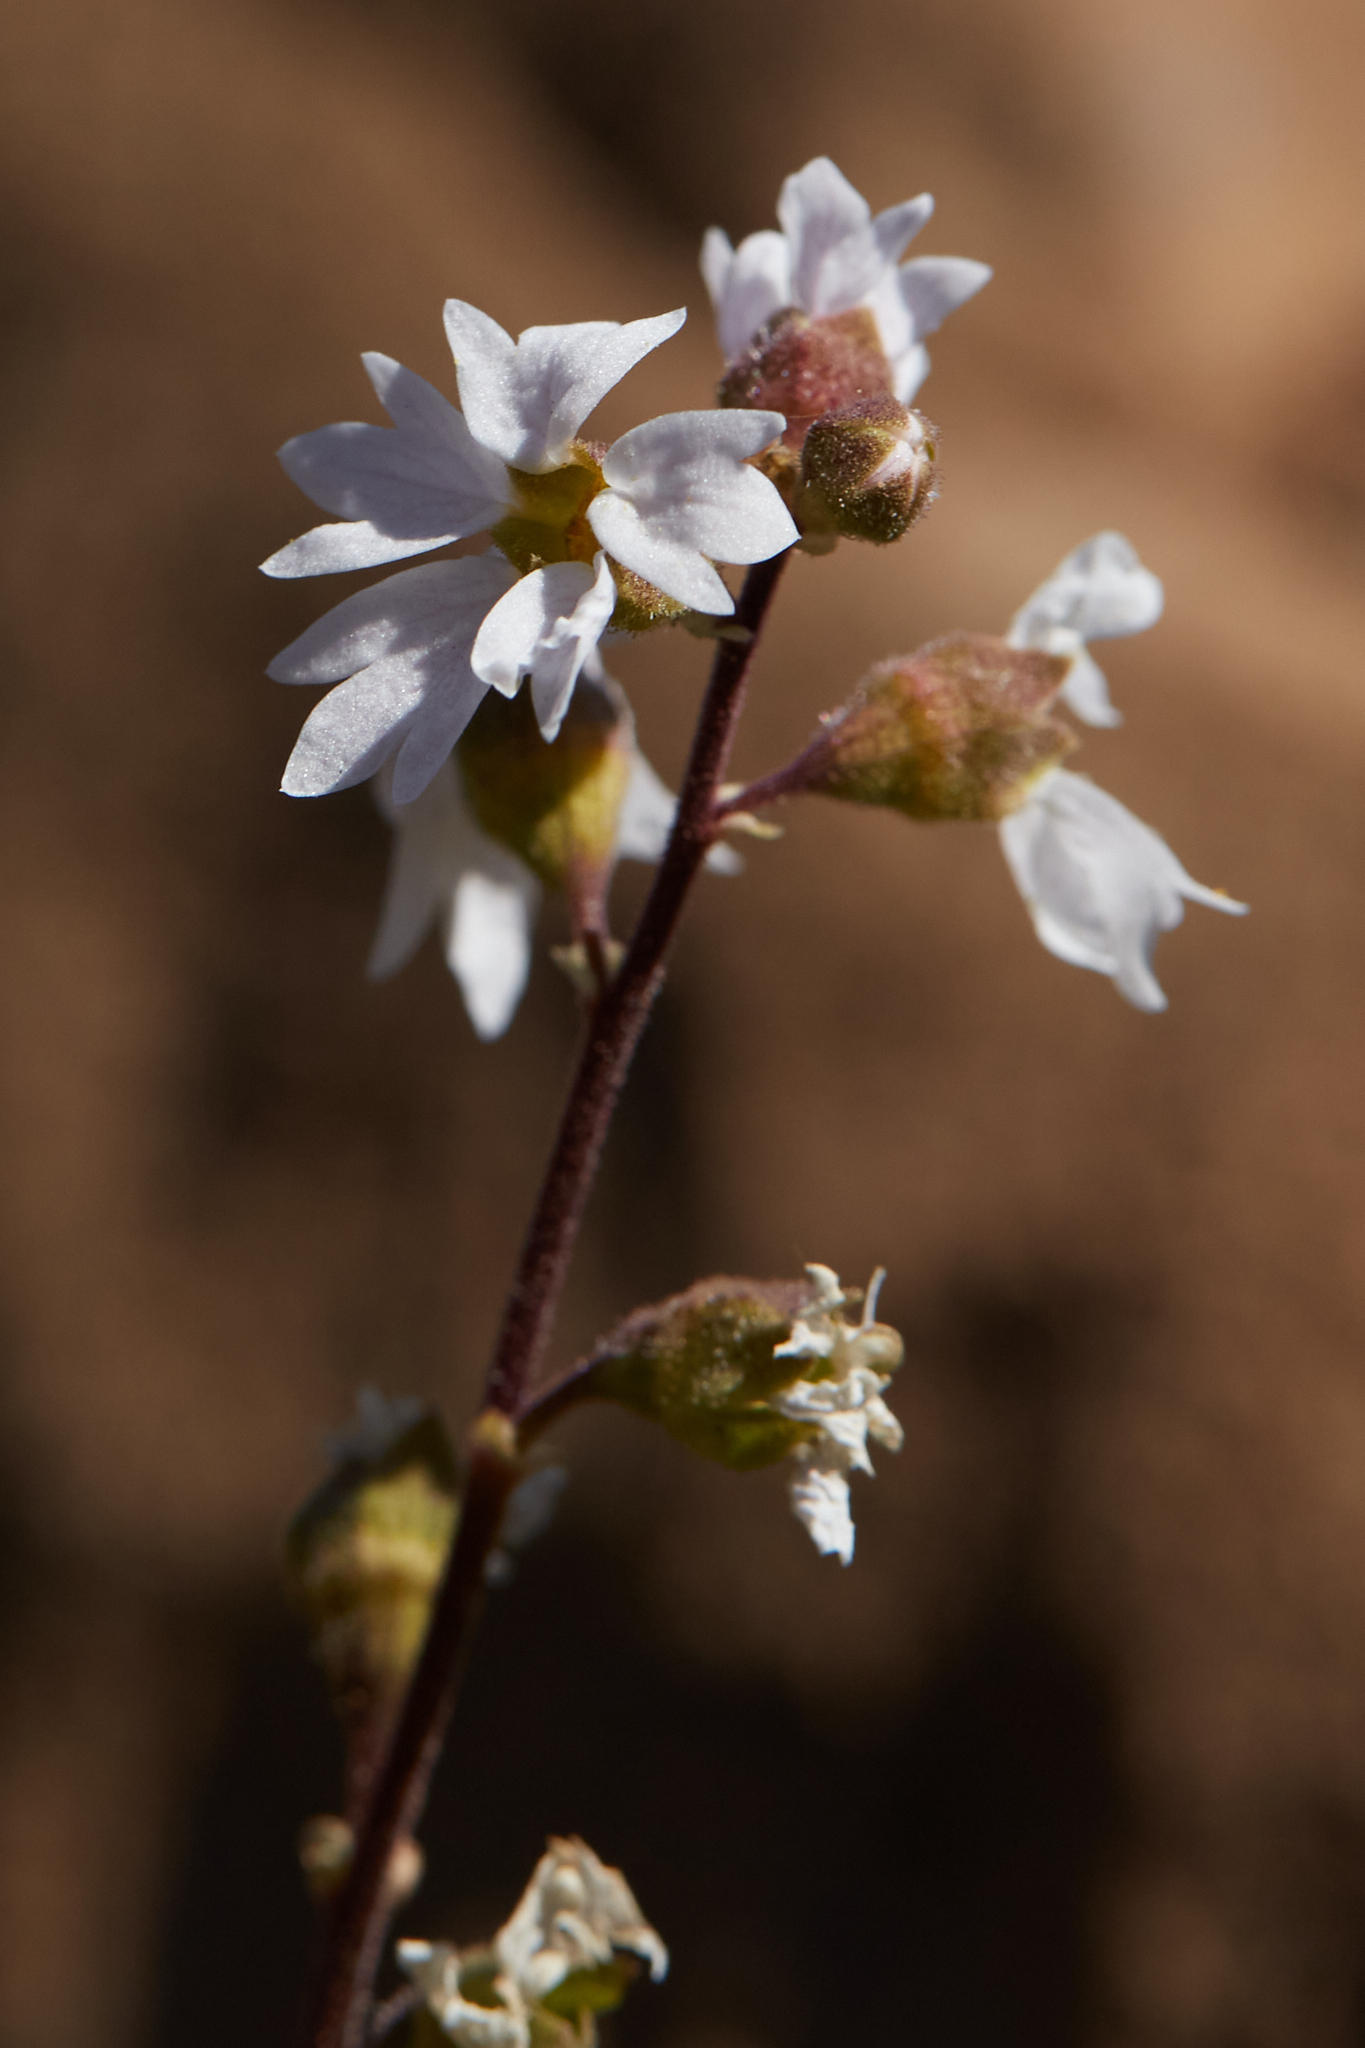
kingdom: Plantae
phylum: Tracheophyta
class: Magnoliopsida
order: Saxifragales
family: Saxifragaceae
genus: Lithophragma
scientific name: Lithophragma affine
